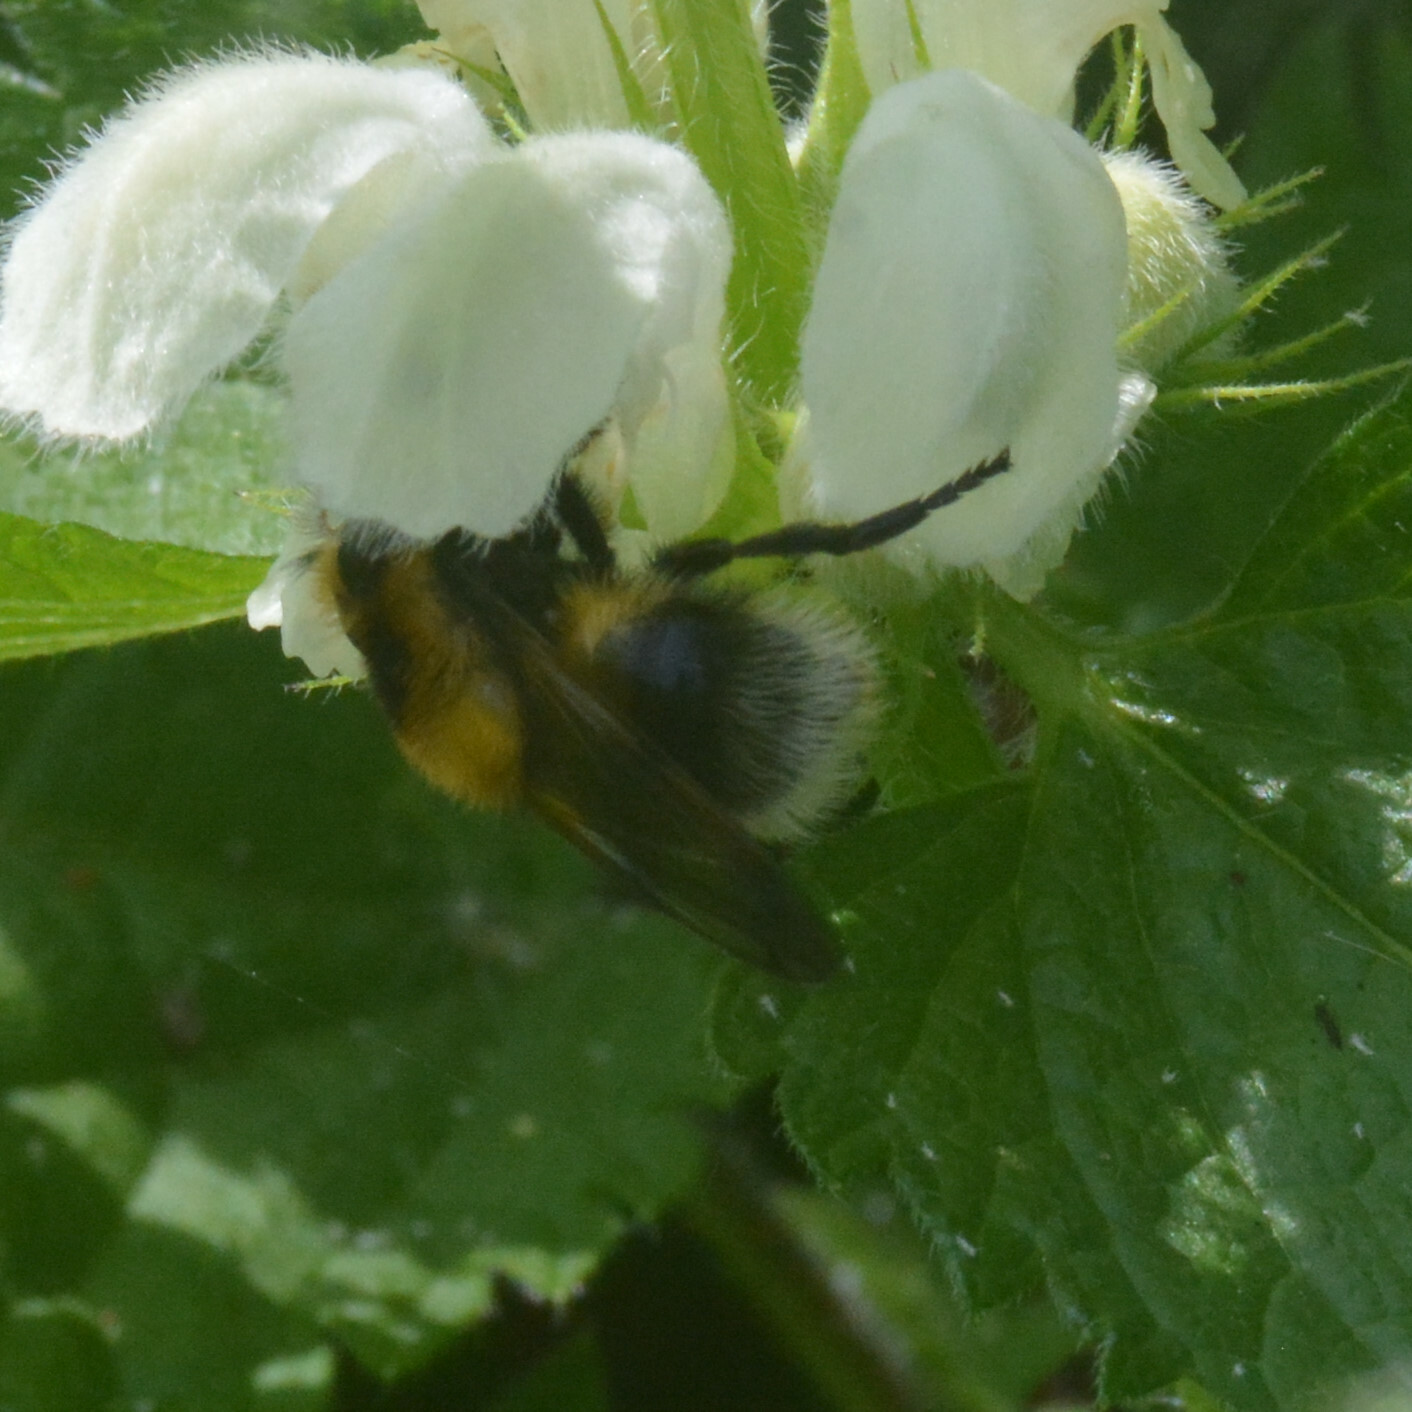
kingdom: Animalia
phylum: Arthropoda
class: Insecta
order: Diptera
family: Syrphidae
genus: Volucella
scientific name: Volucella bombylans
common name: Bumble bee hover fly
